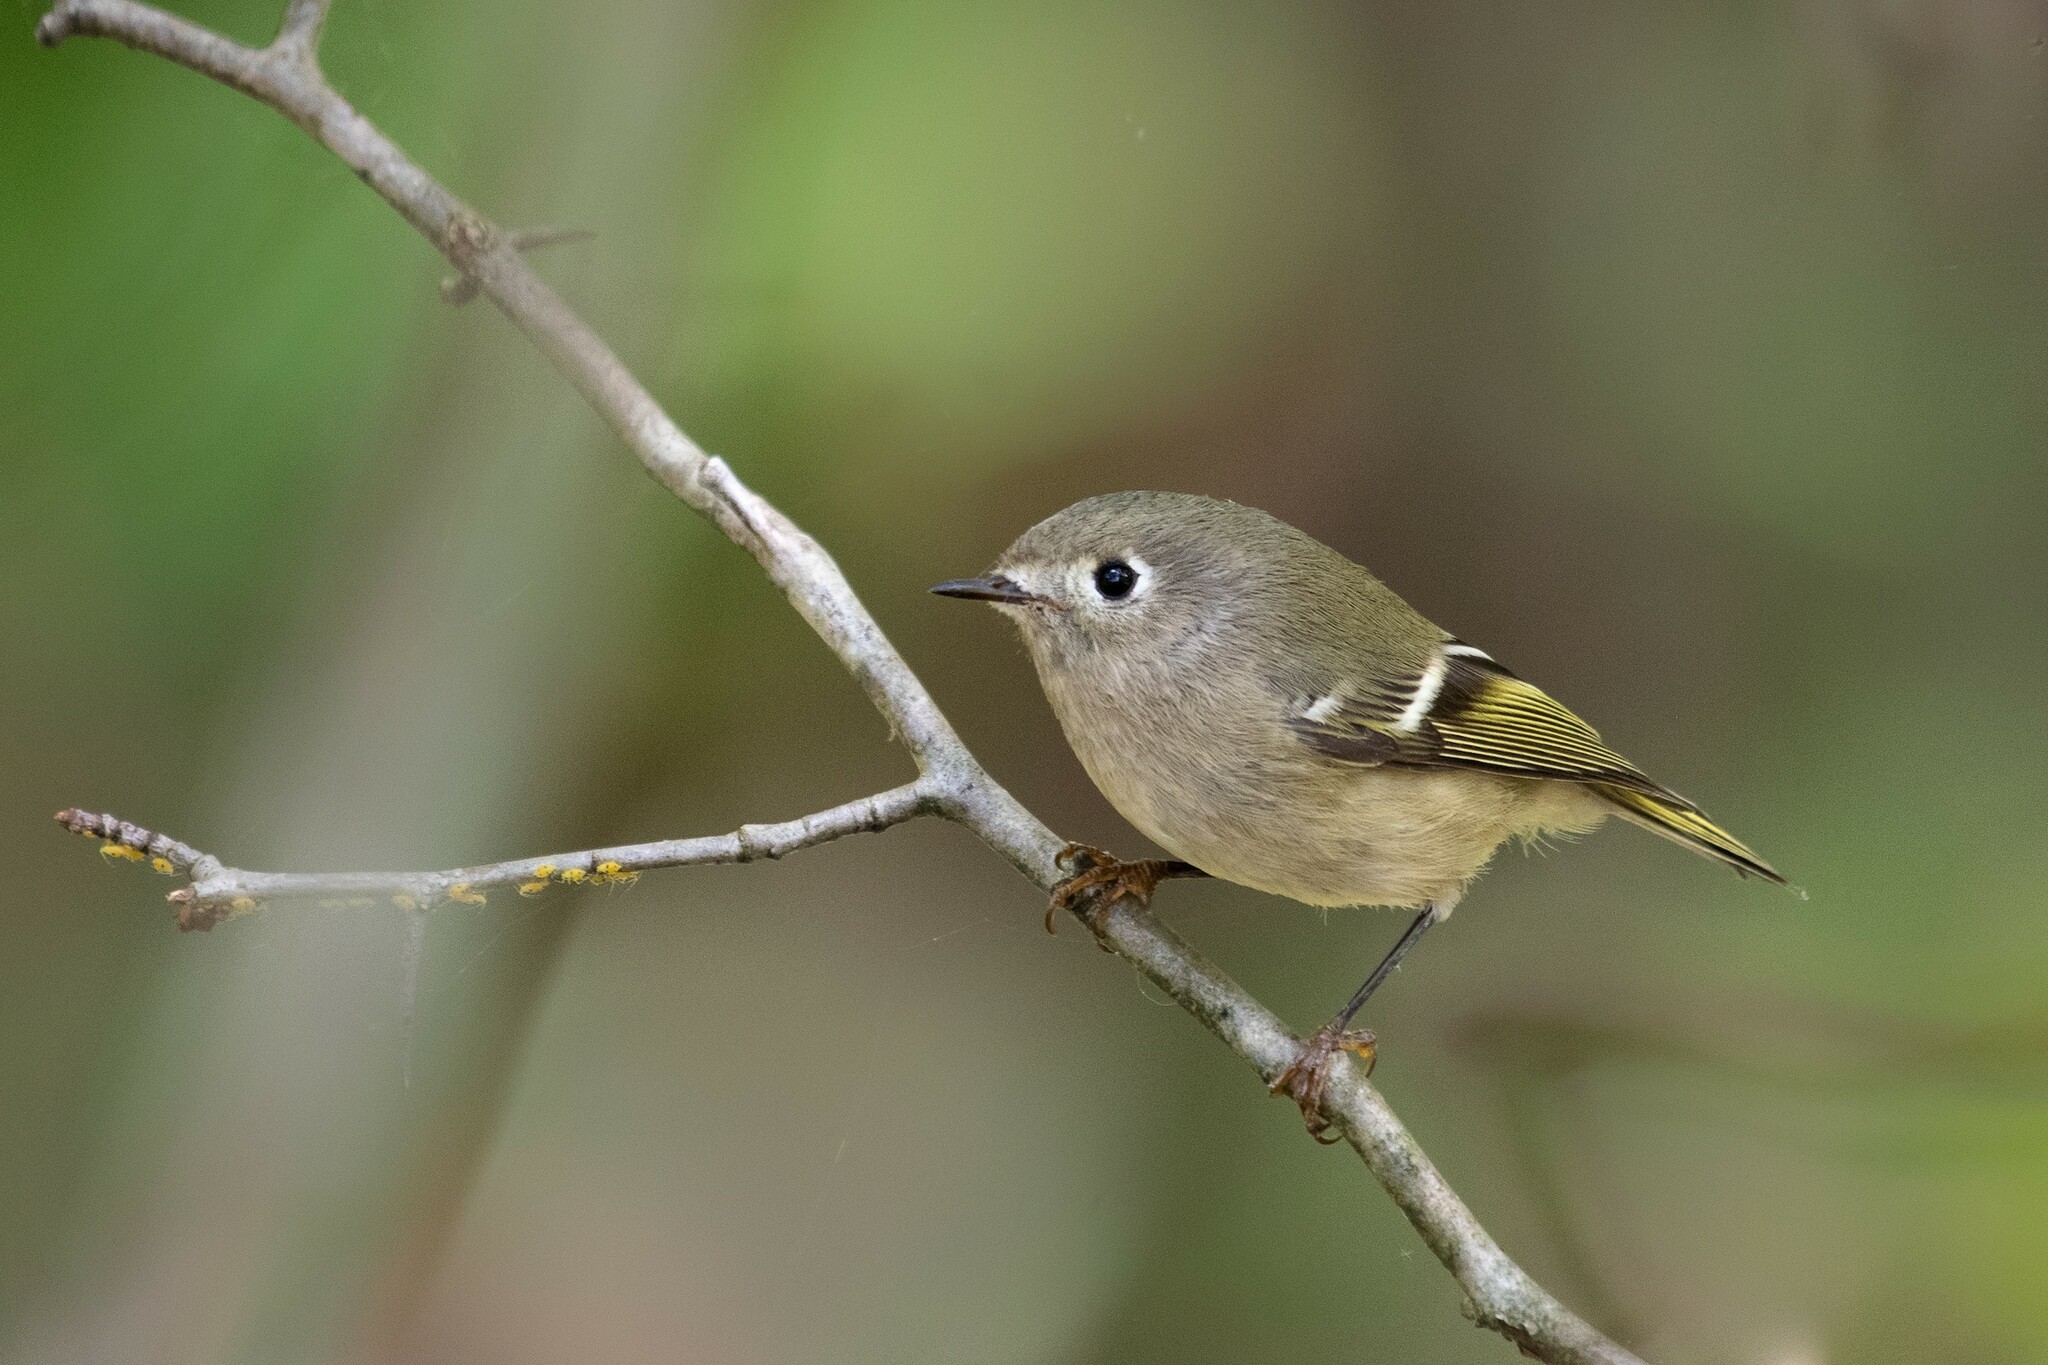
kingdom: Animalia
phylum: Chordata
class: Aves
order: Passeriformes
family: Regulidae
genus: Regulus
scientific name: Regulus calendula
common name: Ruby-crowned kinglet
